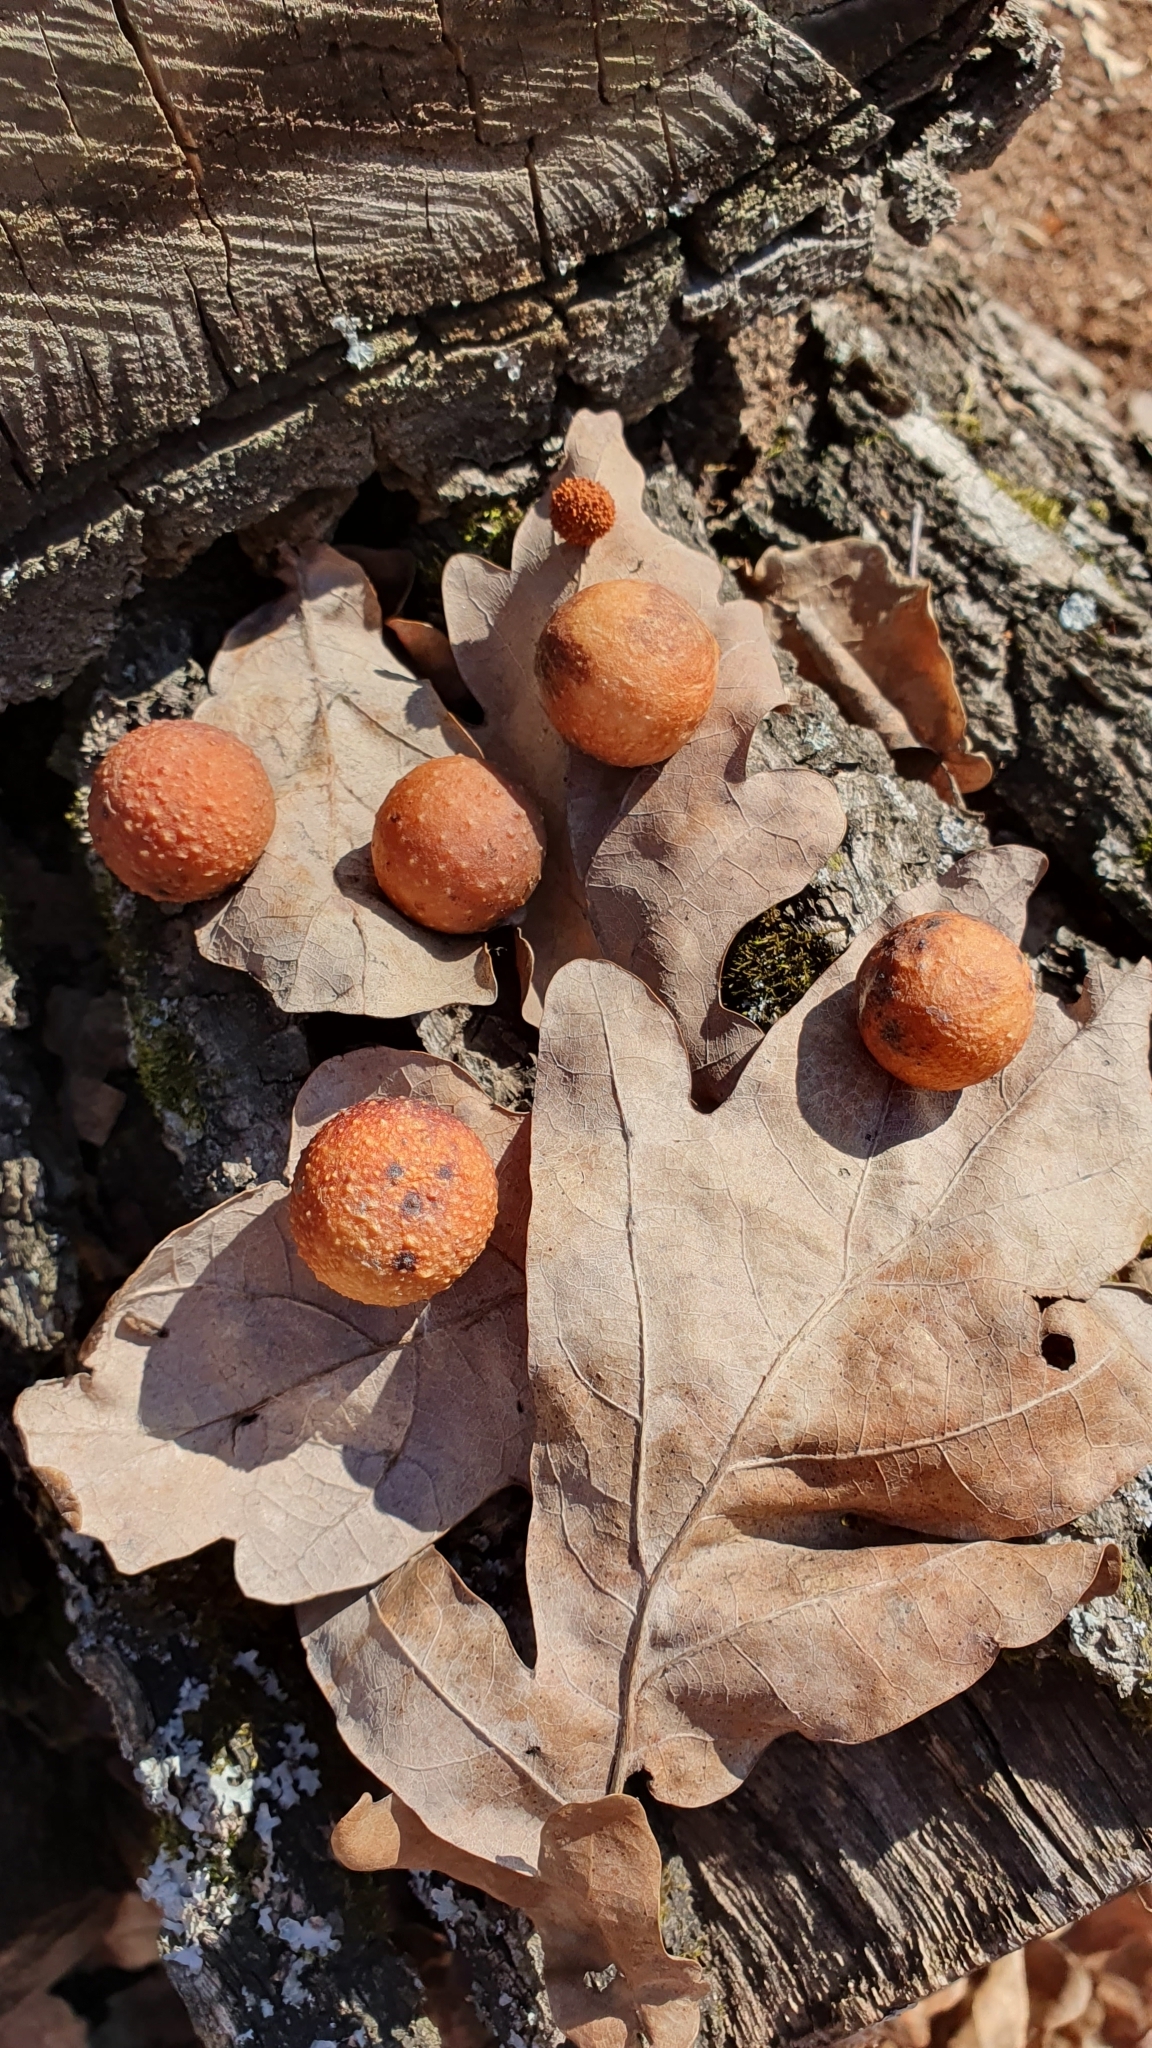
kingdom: Animalia
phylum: Arthropoda
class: Insecta
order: Hymenoptera
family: Cynipidae
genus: Cynips
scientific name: Cynips quercusfolii
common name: Cherry gall
